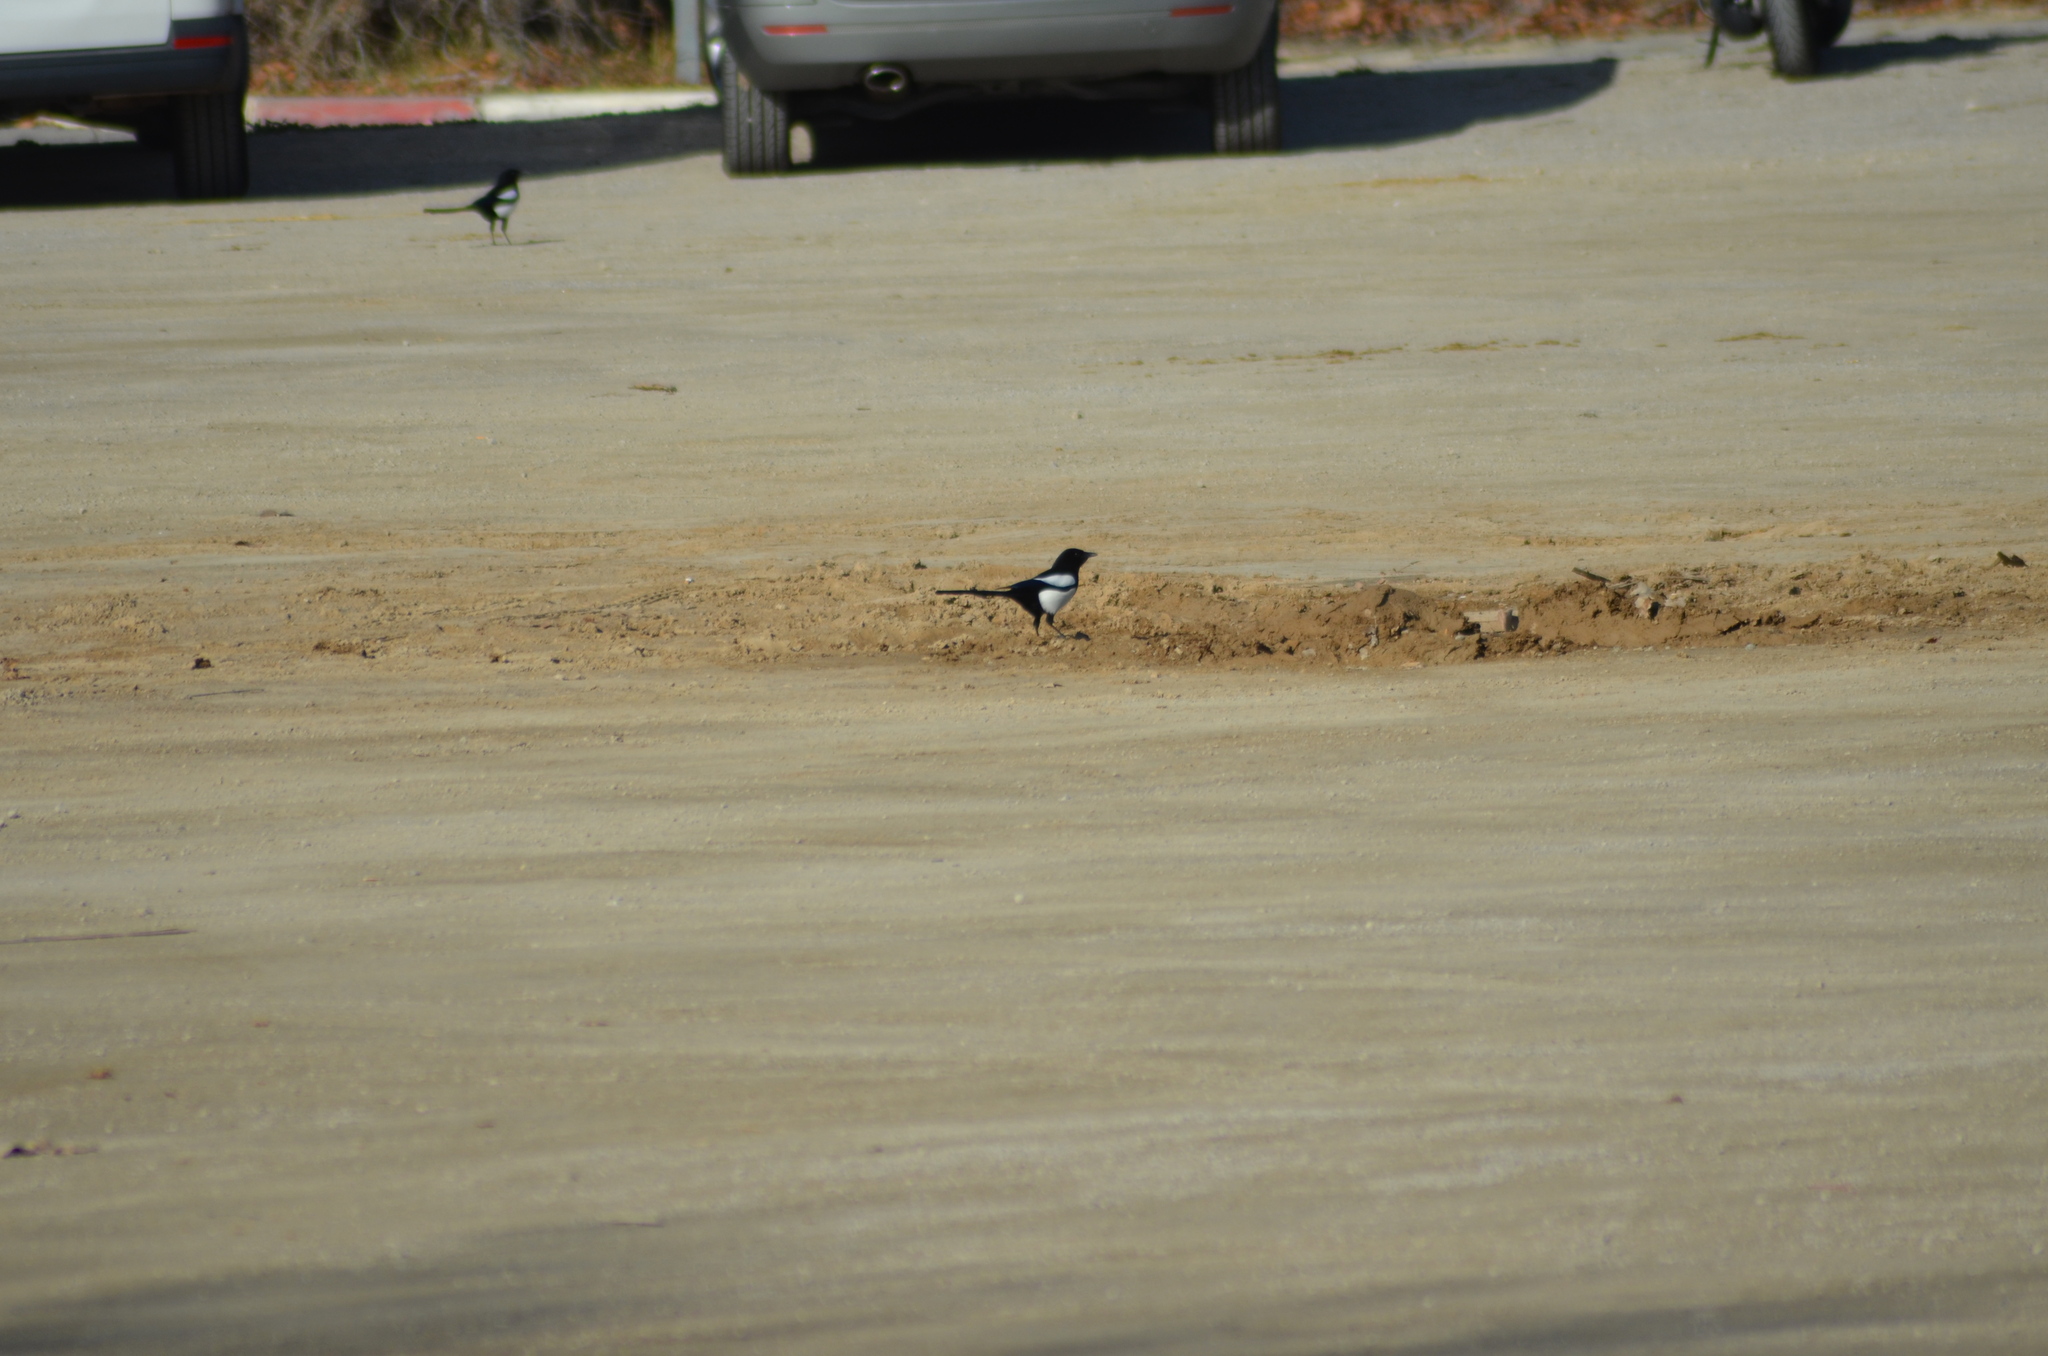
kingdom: Animalia
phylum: Chordata
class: Aves
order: Passeriformes
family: Corvidae
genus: Pica
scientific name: Pica pica
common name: Eurasian magpie
